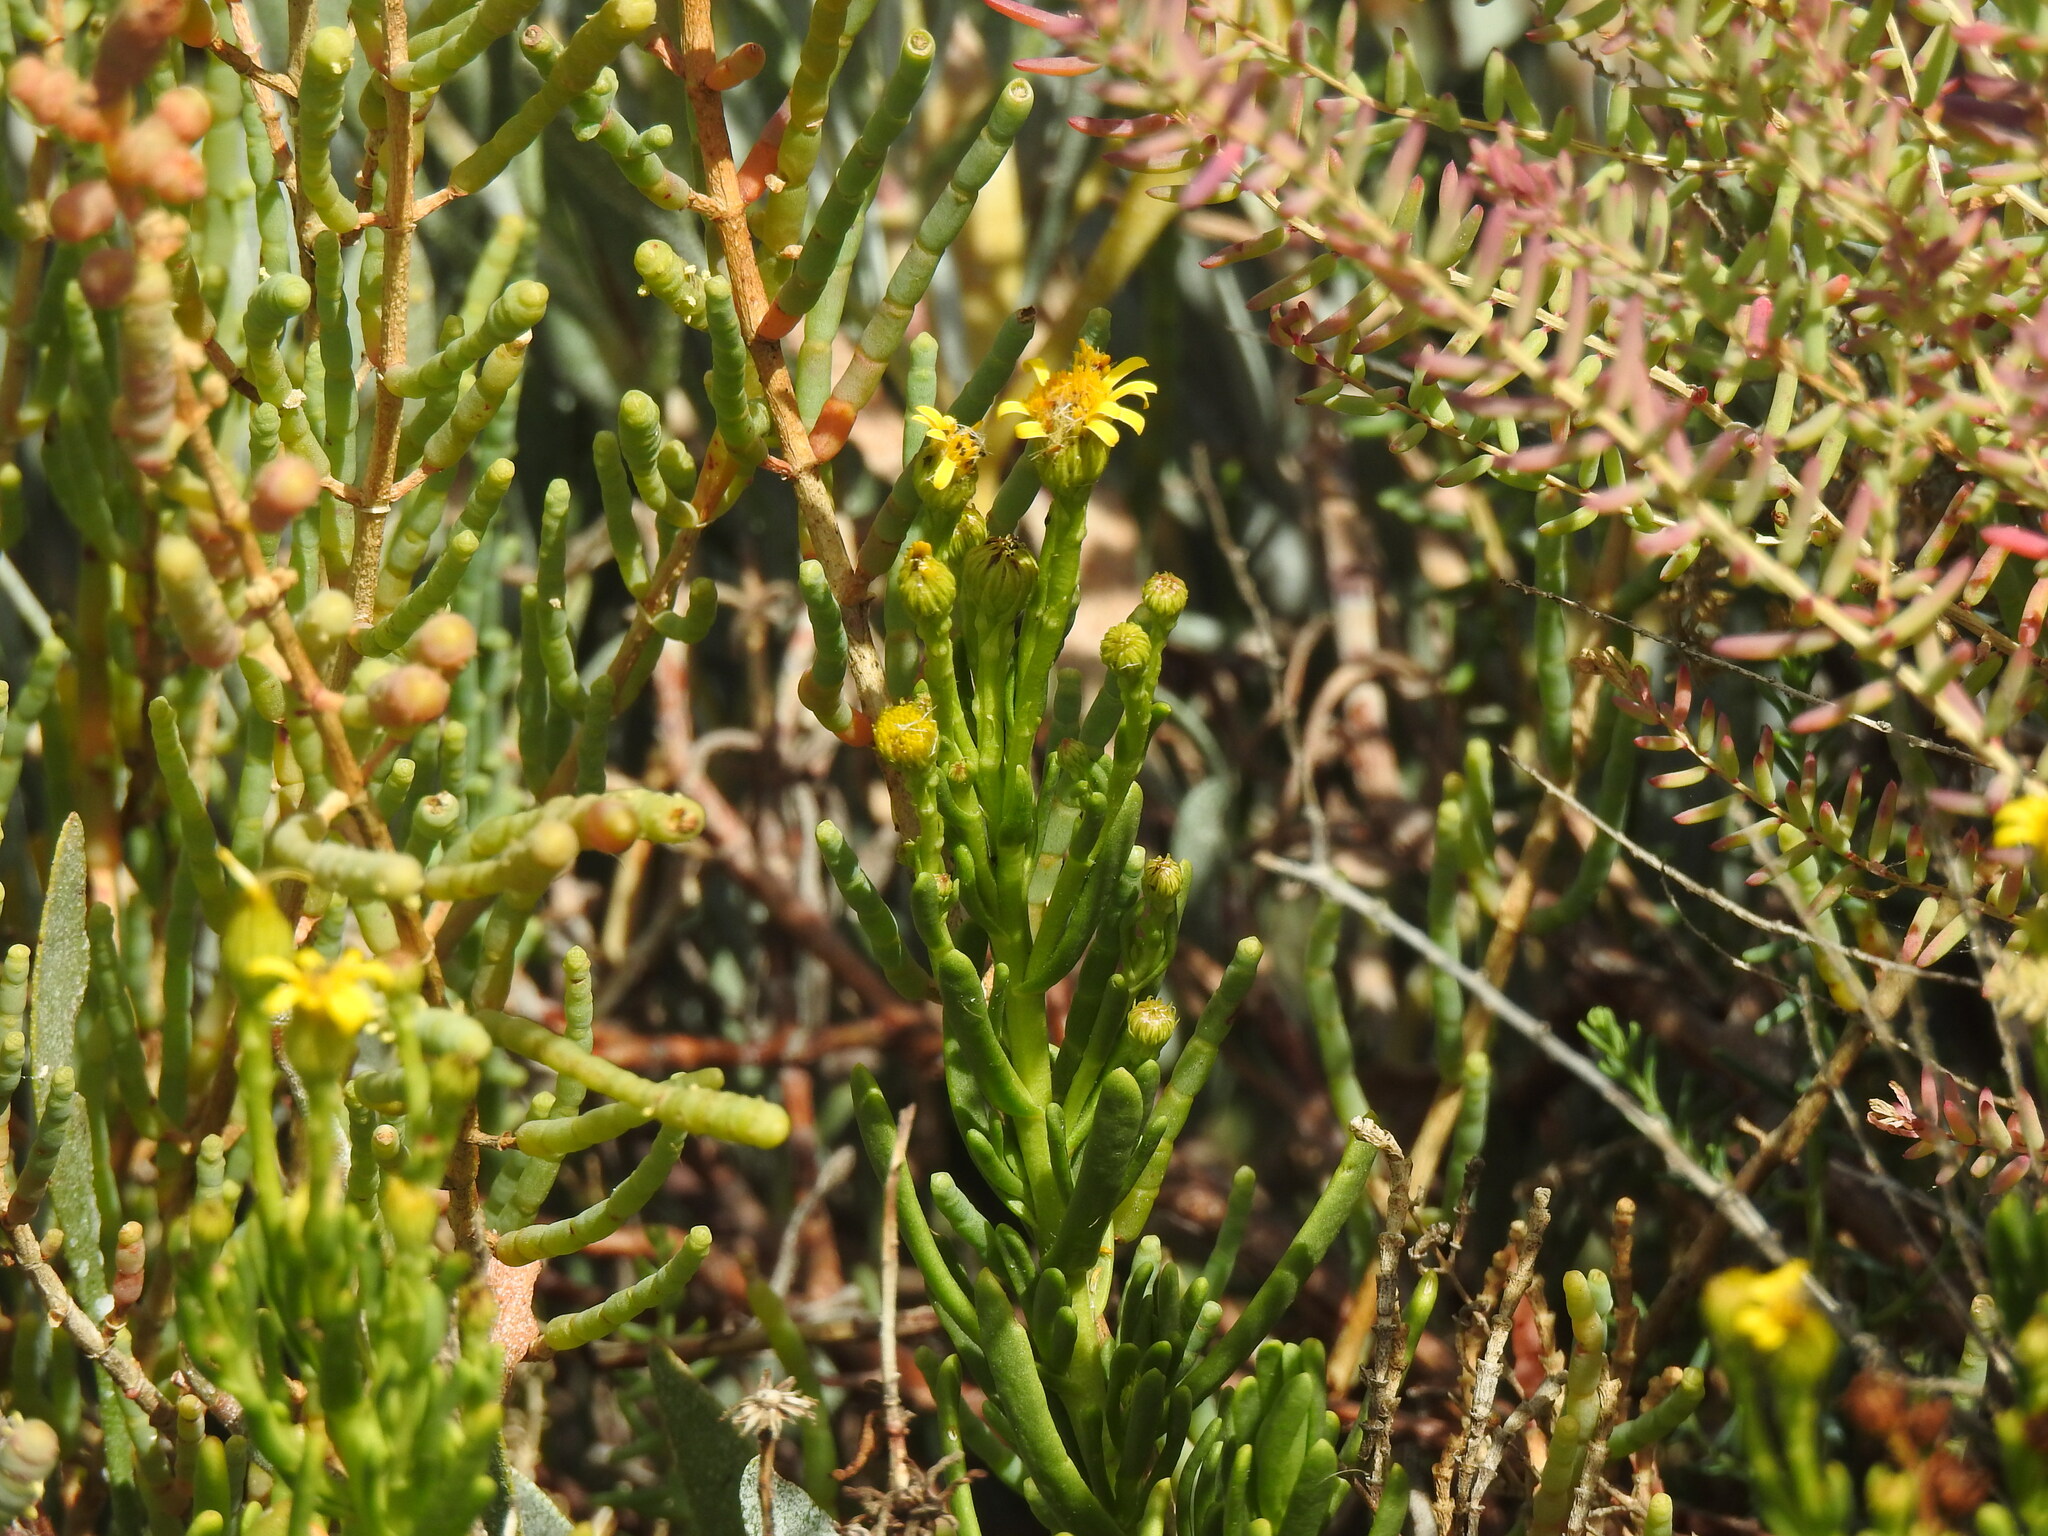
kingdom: Plantae
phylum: Tracheophyta
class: Magnoliopsida
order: Asterales
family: Asteraceae
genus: Limbarda
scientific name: Limbarda crithmoides
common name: Golden samphire
